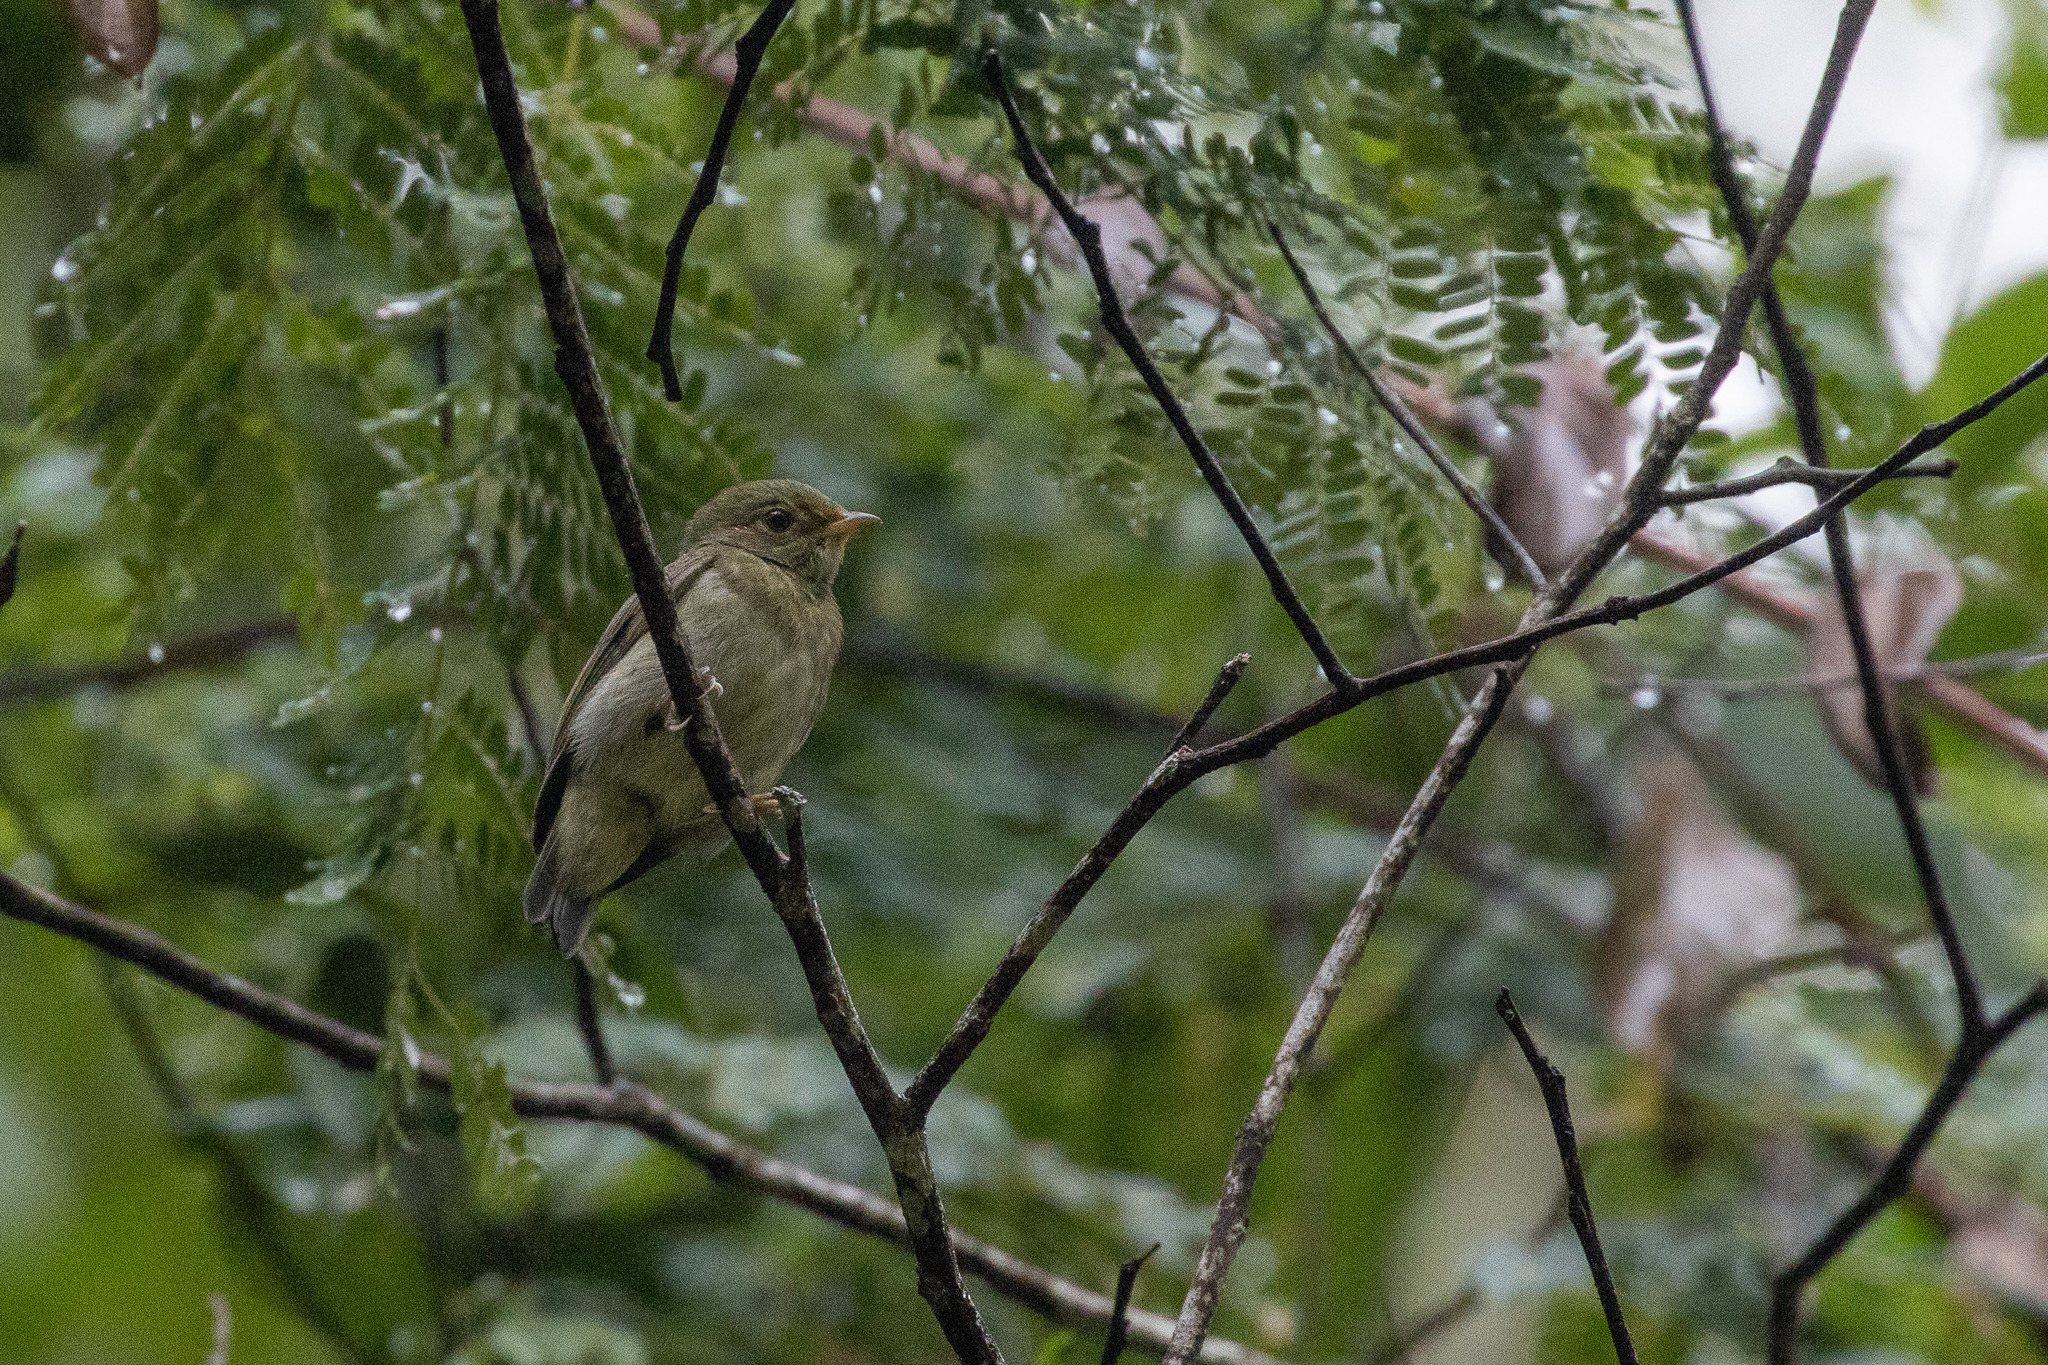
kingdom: Animalia
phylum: Chordata
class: Aves
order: Passeriformes
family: Pipridae
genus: Pipra
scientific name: Pipra rubrocapilla
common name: Red-headed manakin
